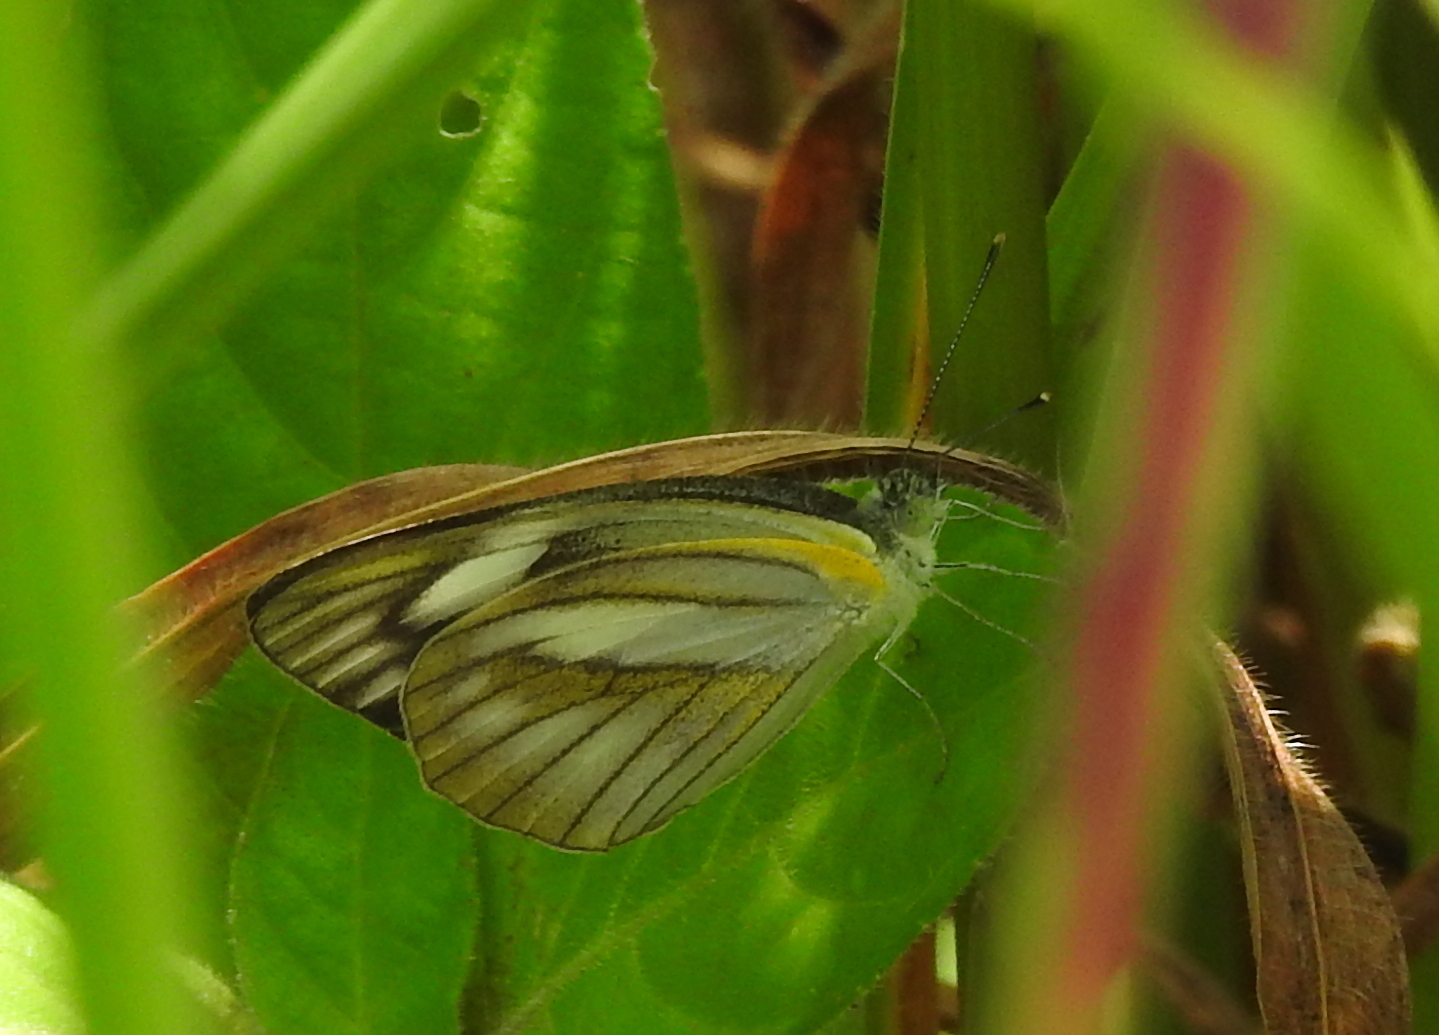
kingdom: Animalia
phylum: Arthropoda
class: Insecta
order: Lepidoptera
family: Pieridae
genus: Appias
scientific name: Appias libythea
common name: Striped albatross
